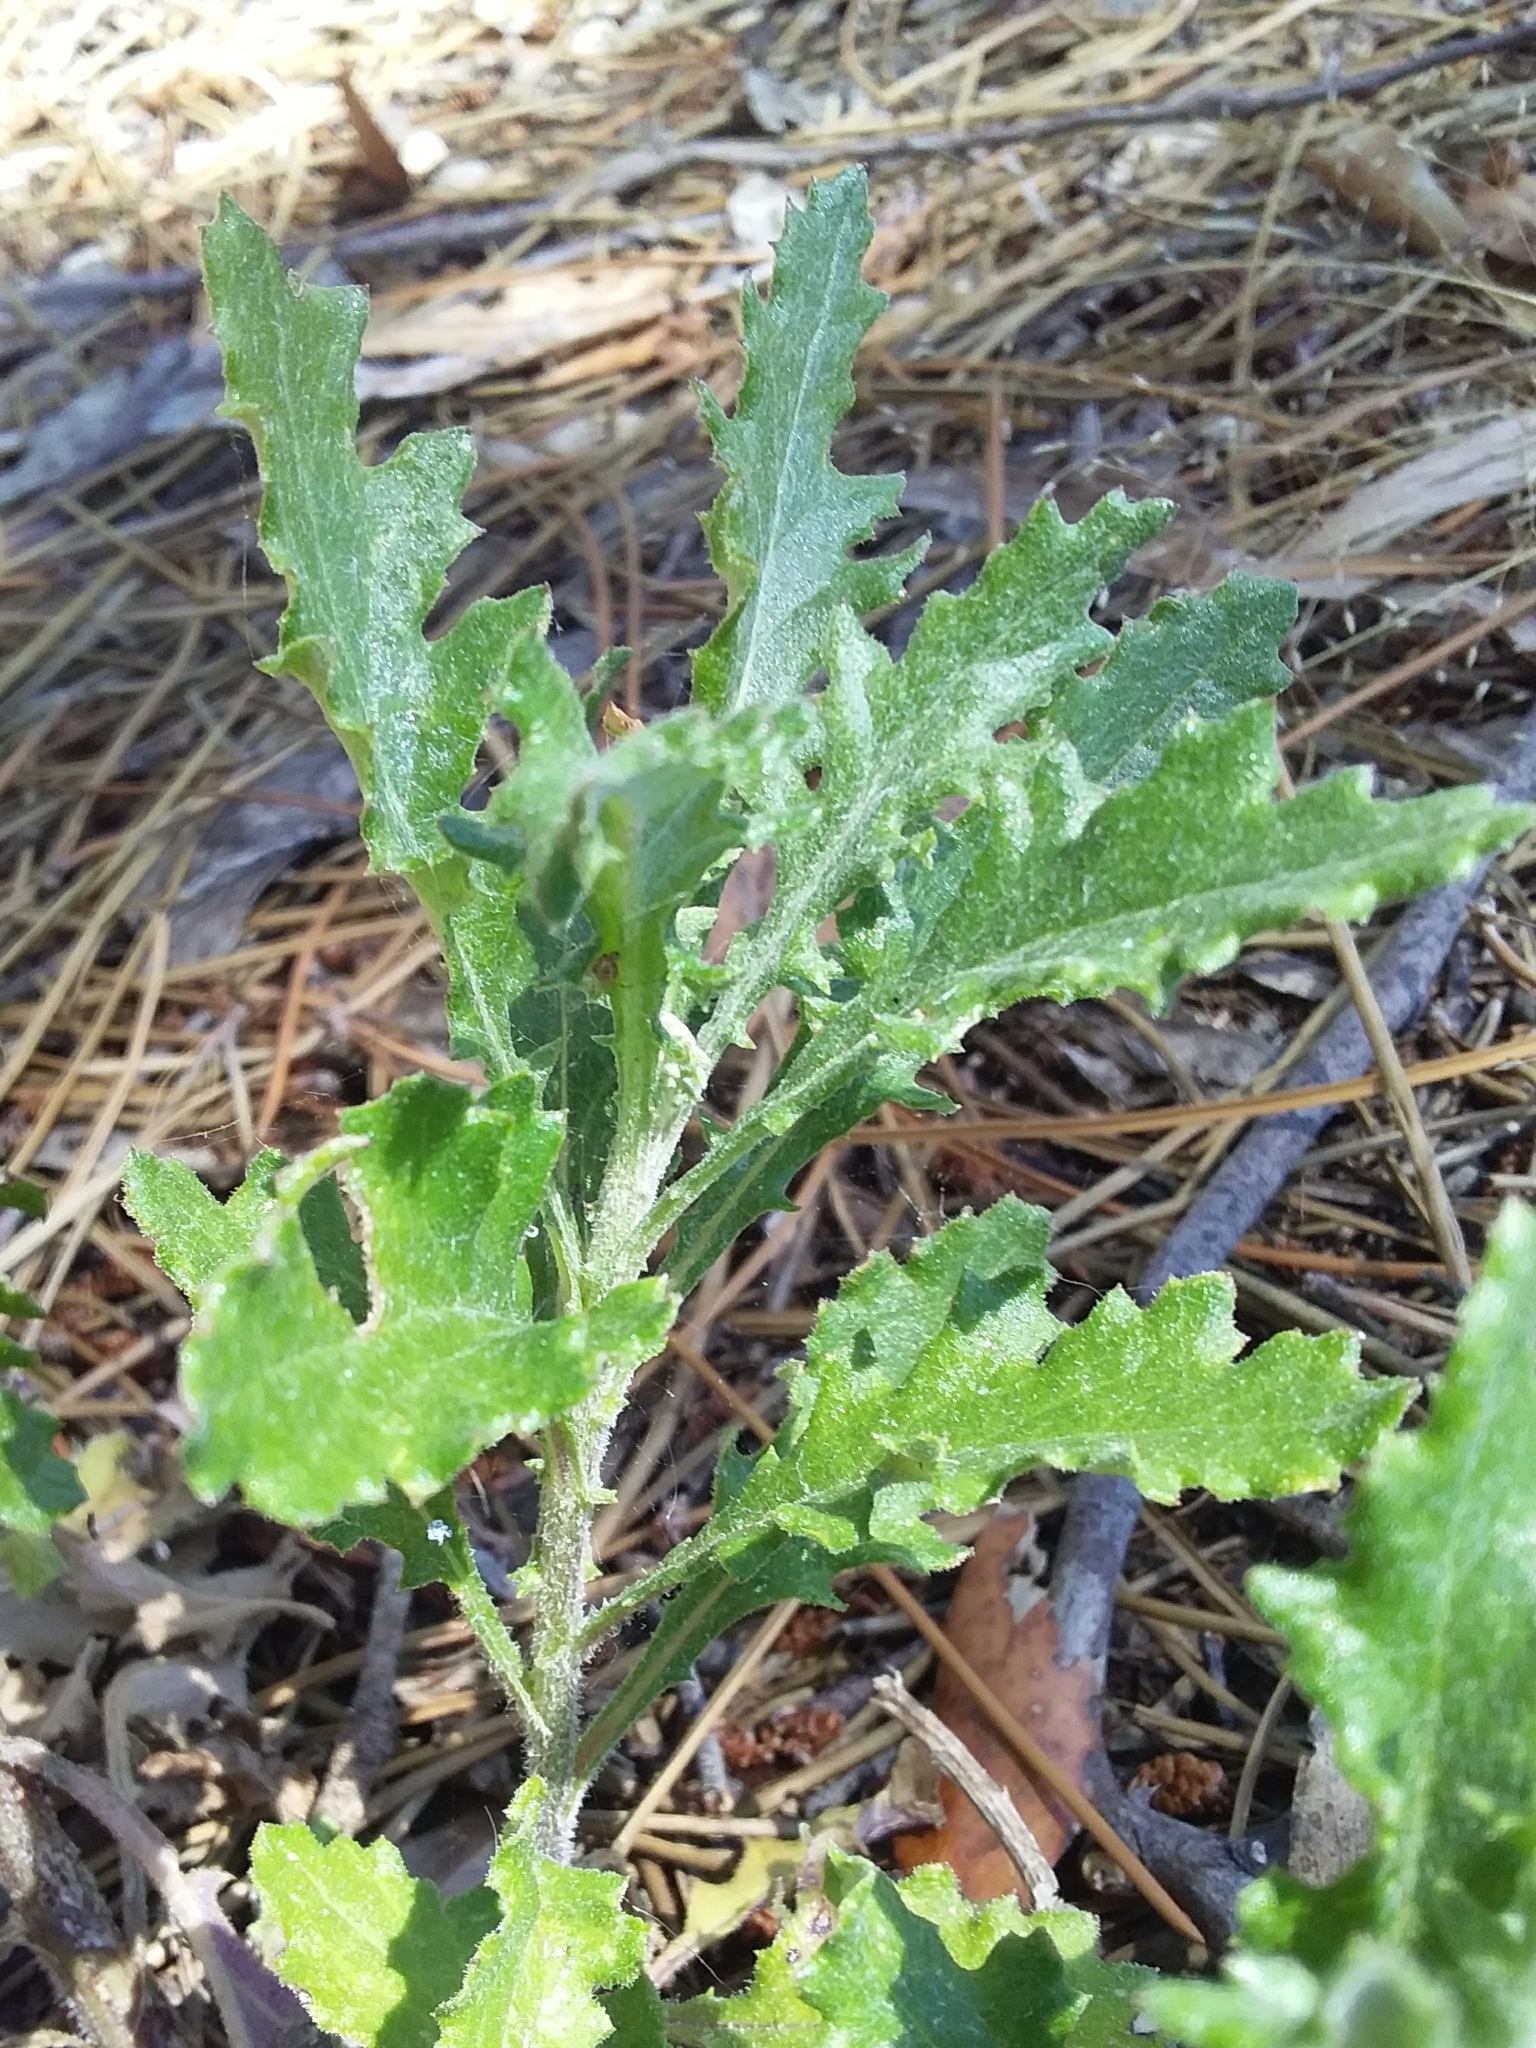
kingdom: Plantae
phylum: Tracheophyta
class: Magnoliopsida
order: Asterales
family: Asteraceae
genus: Senecio
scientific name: Senecio glomeratus
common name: Cutleaf burnweed
